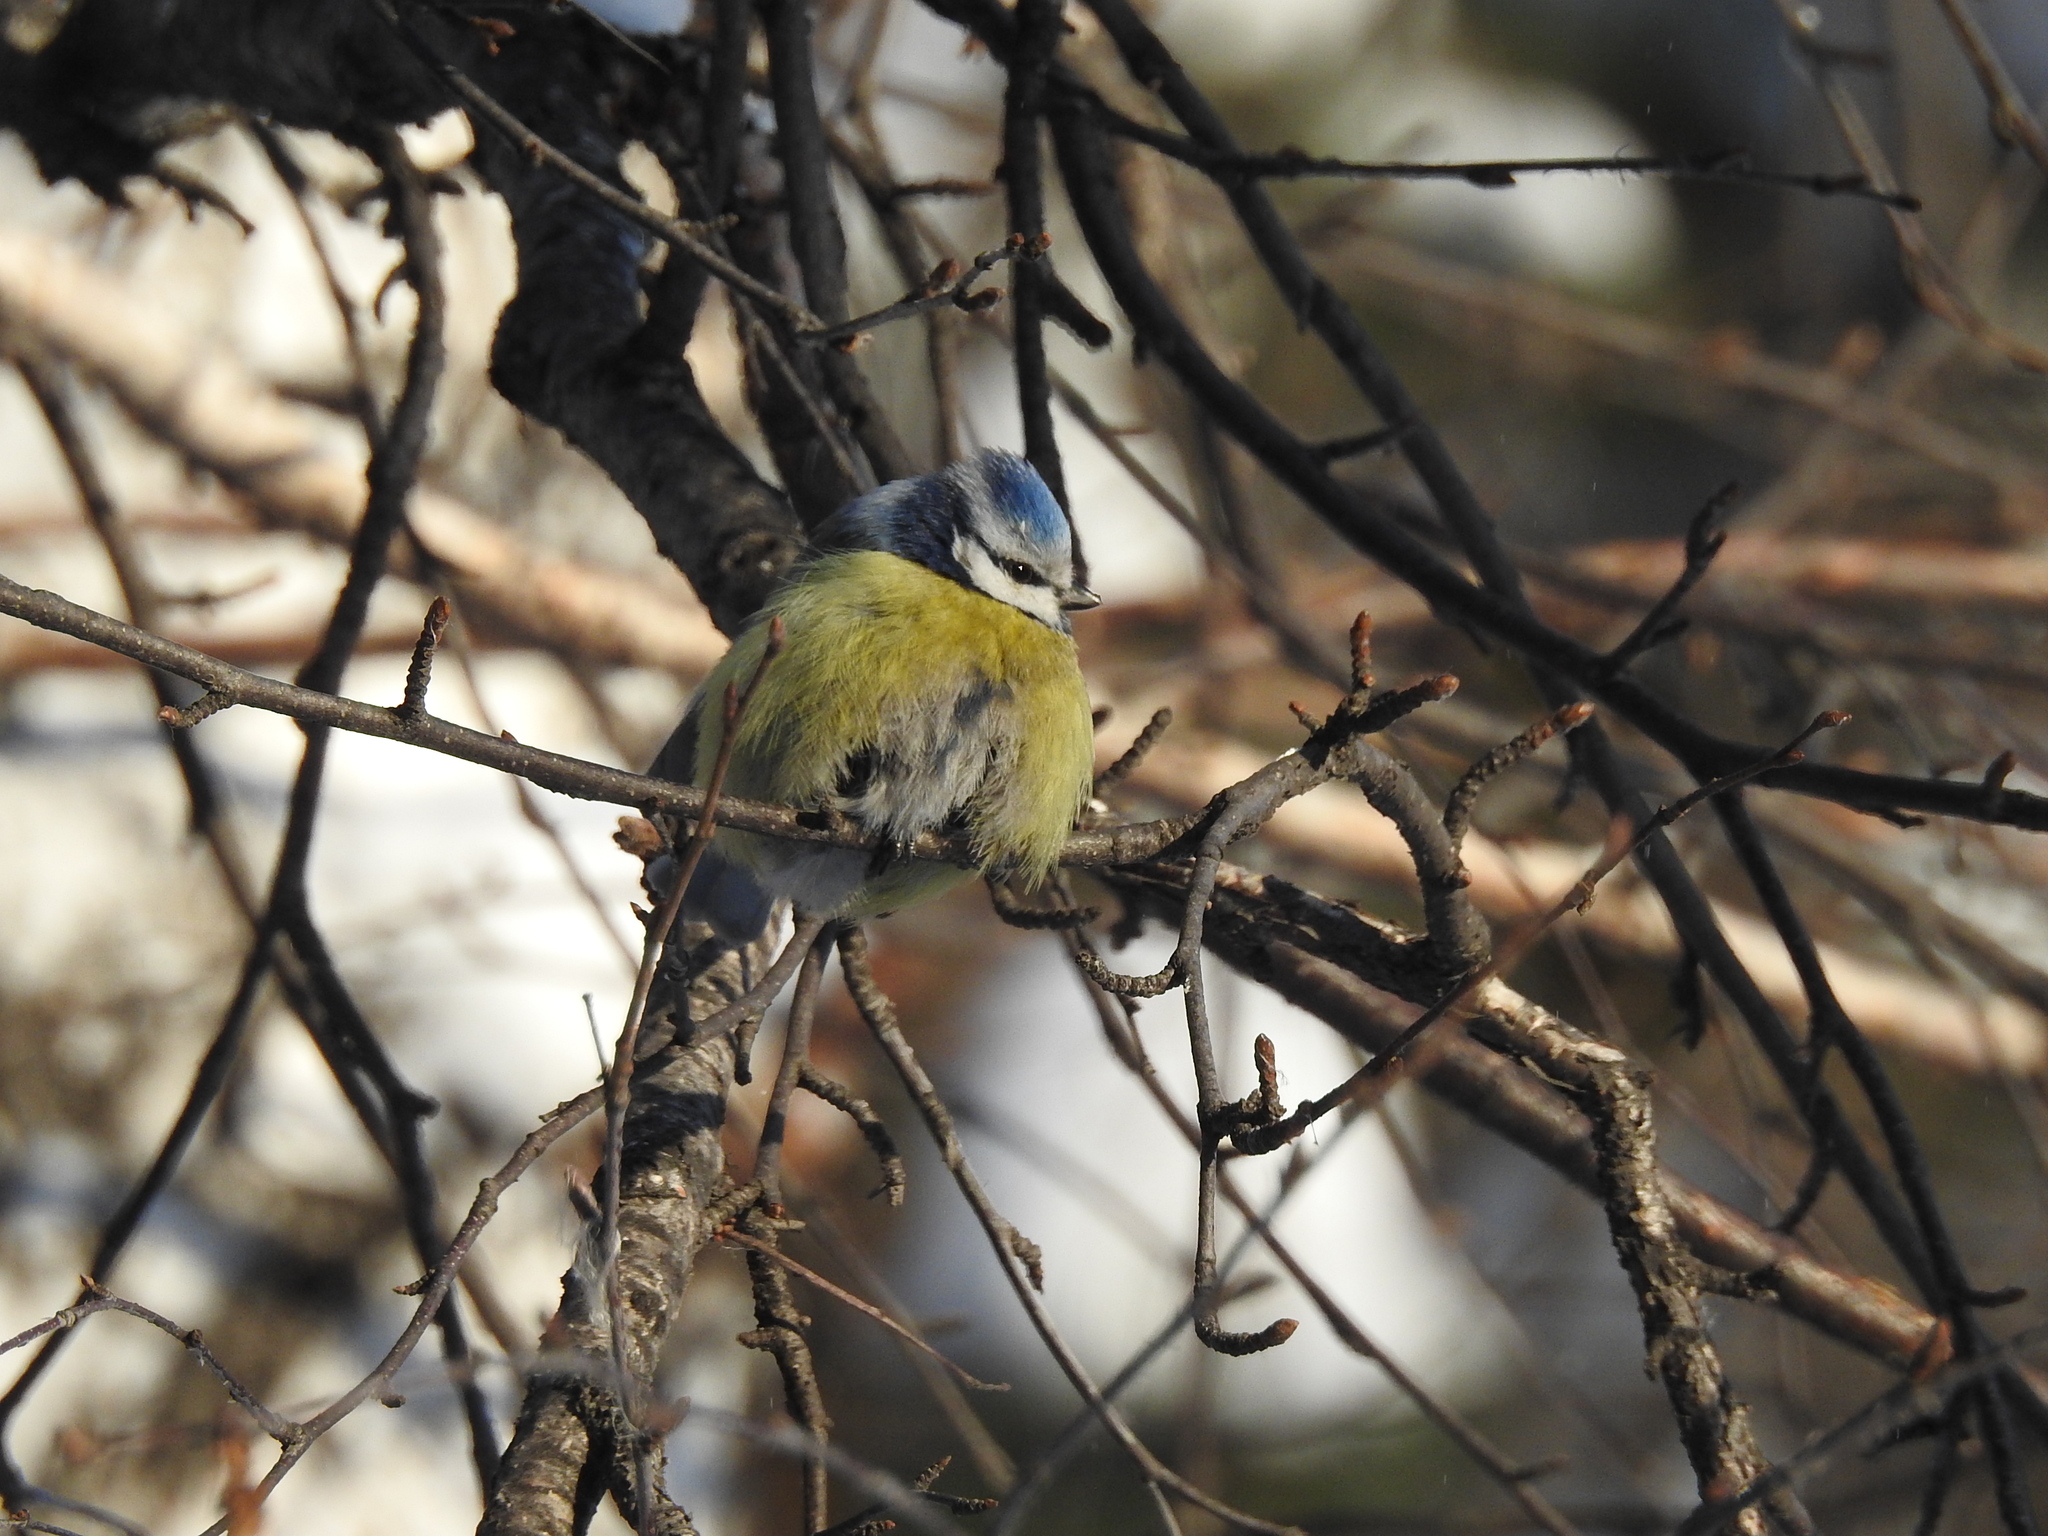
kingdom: Animalia
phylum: Chordata
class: Aves
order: Passeriformes
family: Paridae
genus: Cyanistes
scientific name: Cyanistes caeruleus
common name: Eurasian blue tit
